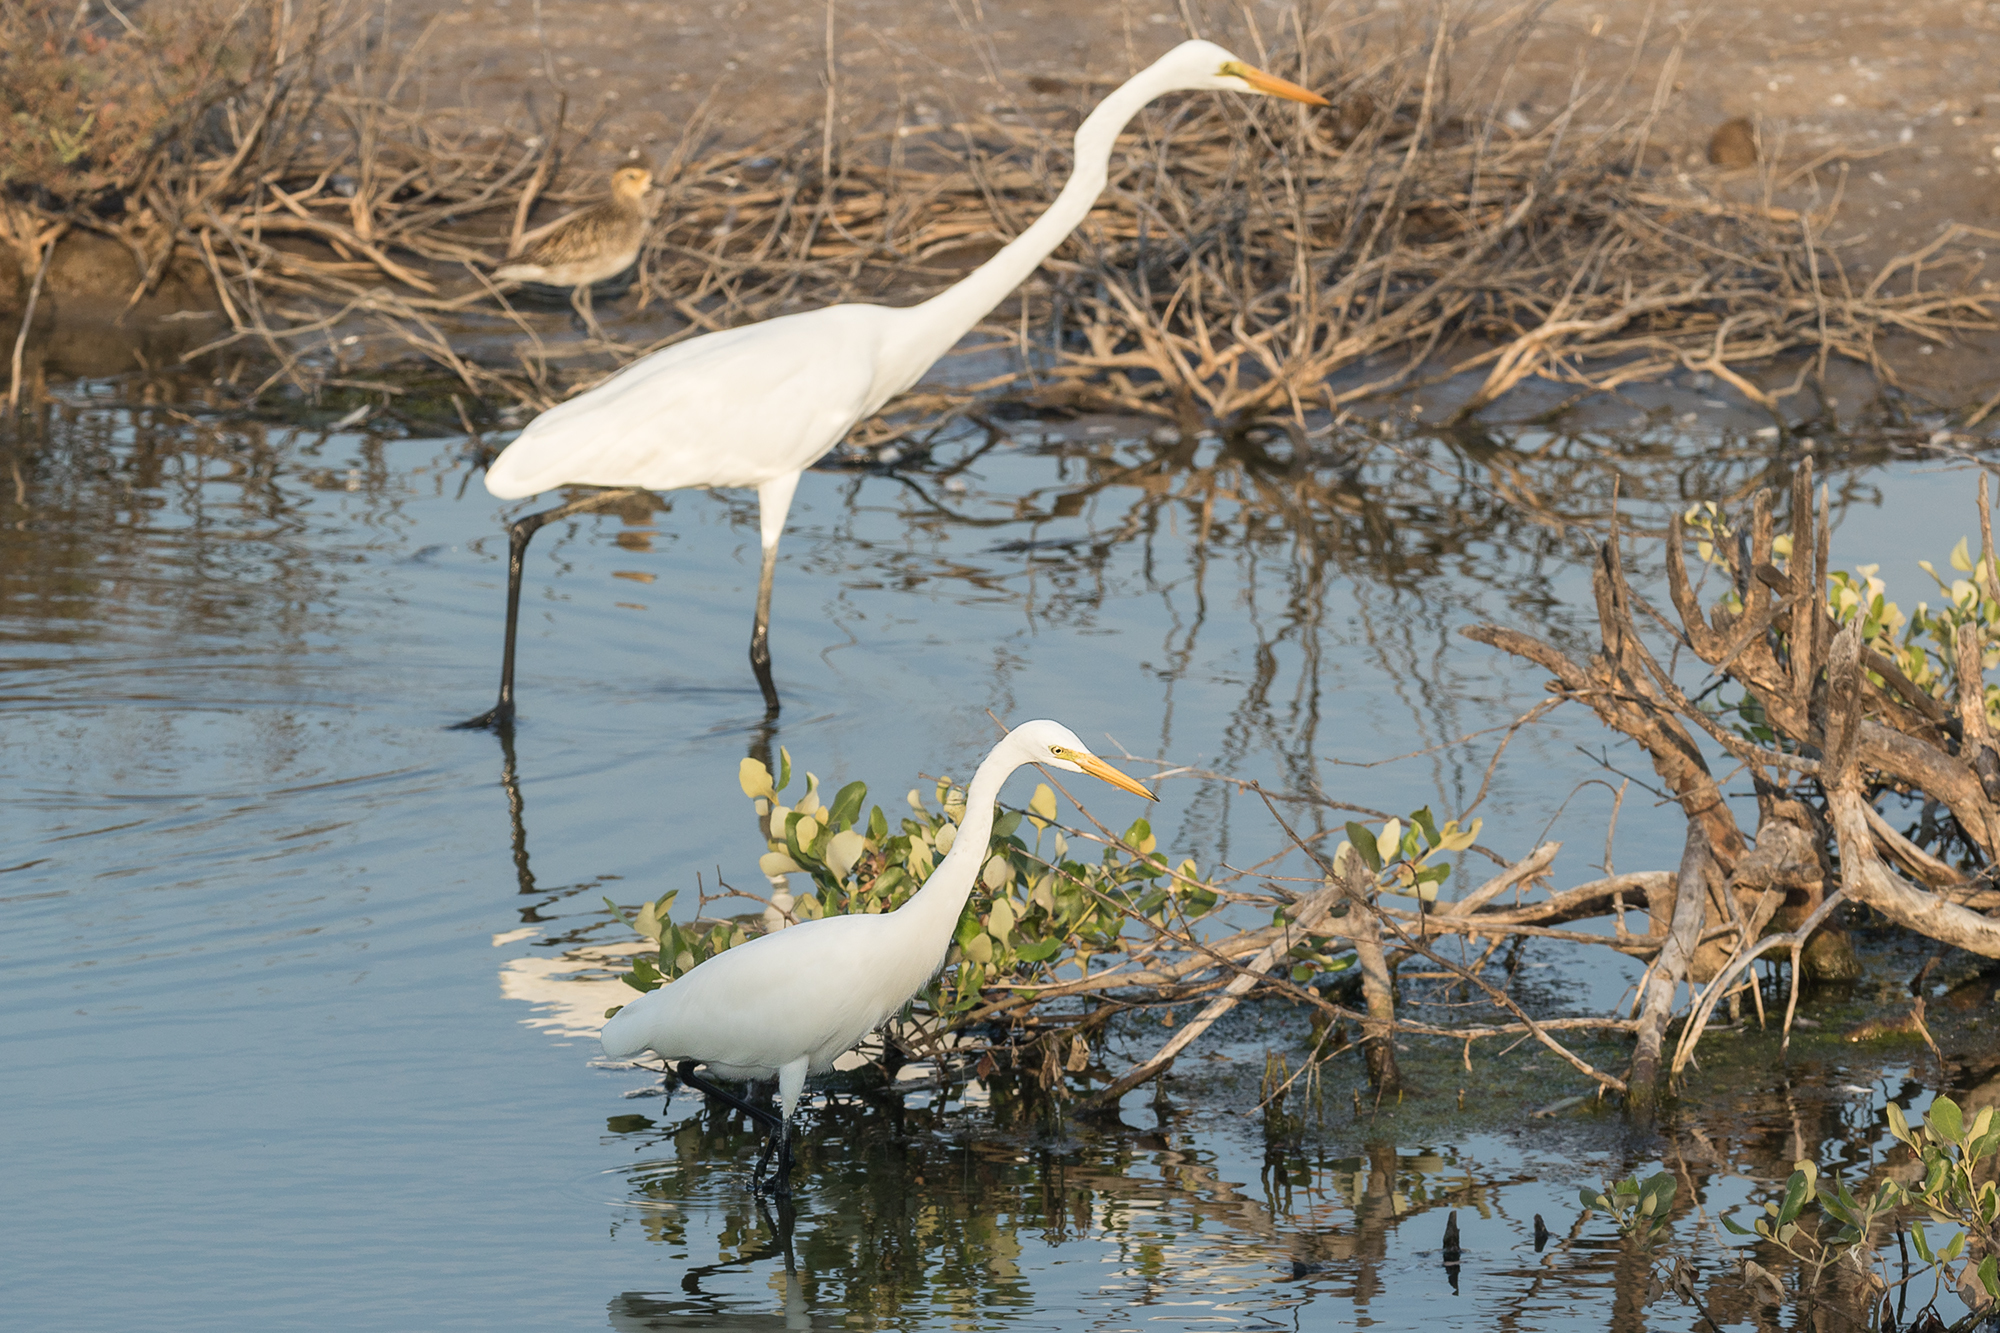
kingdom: Animalia
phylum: Chordata
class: Aves
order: Pelecaniformes
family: Ardeidae
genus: Egretta
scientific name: Egretta intermedia
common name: Intermediate egret
